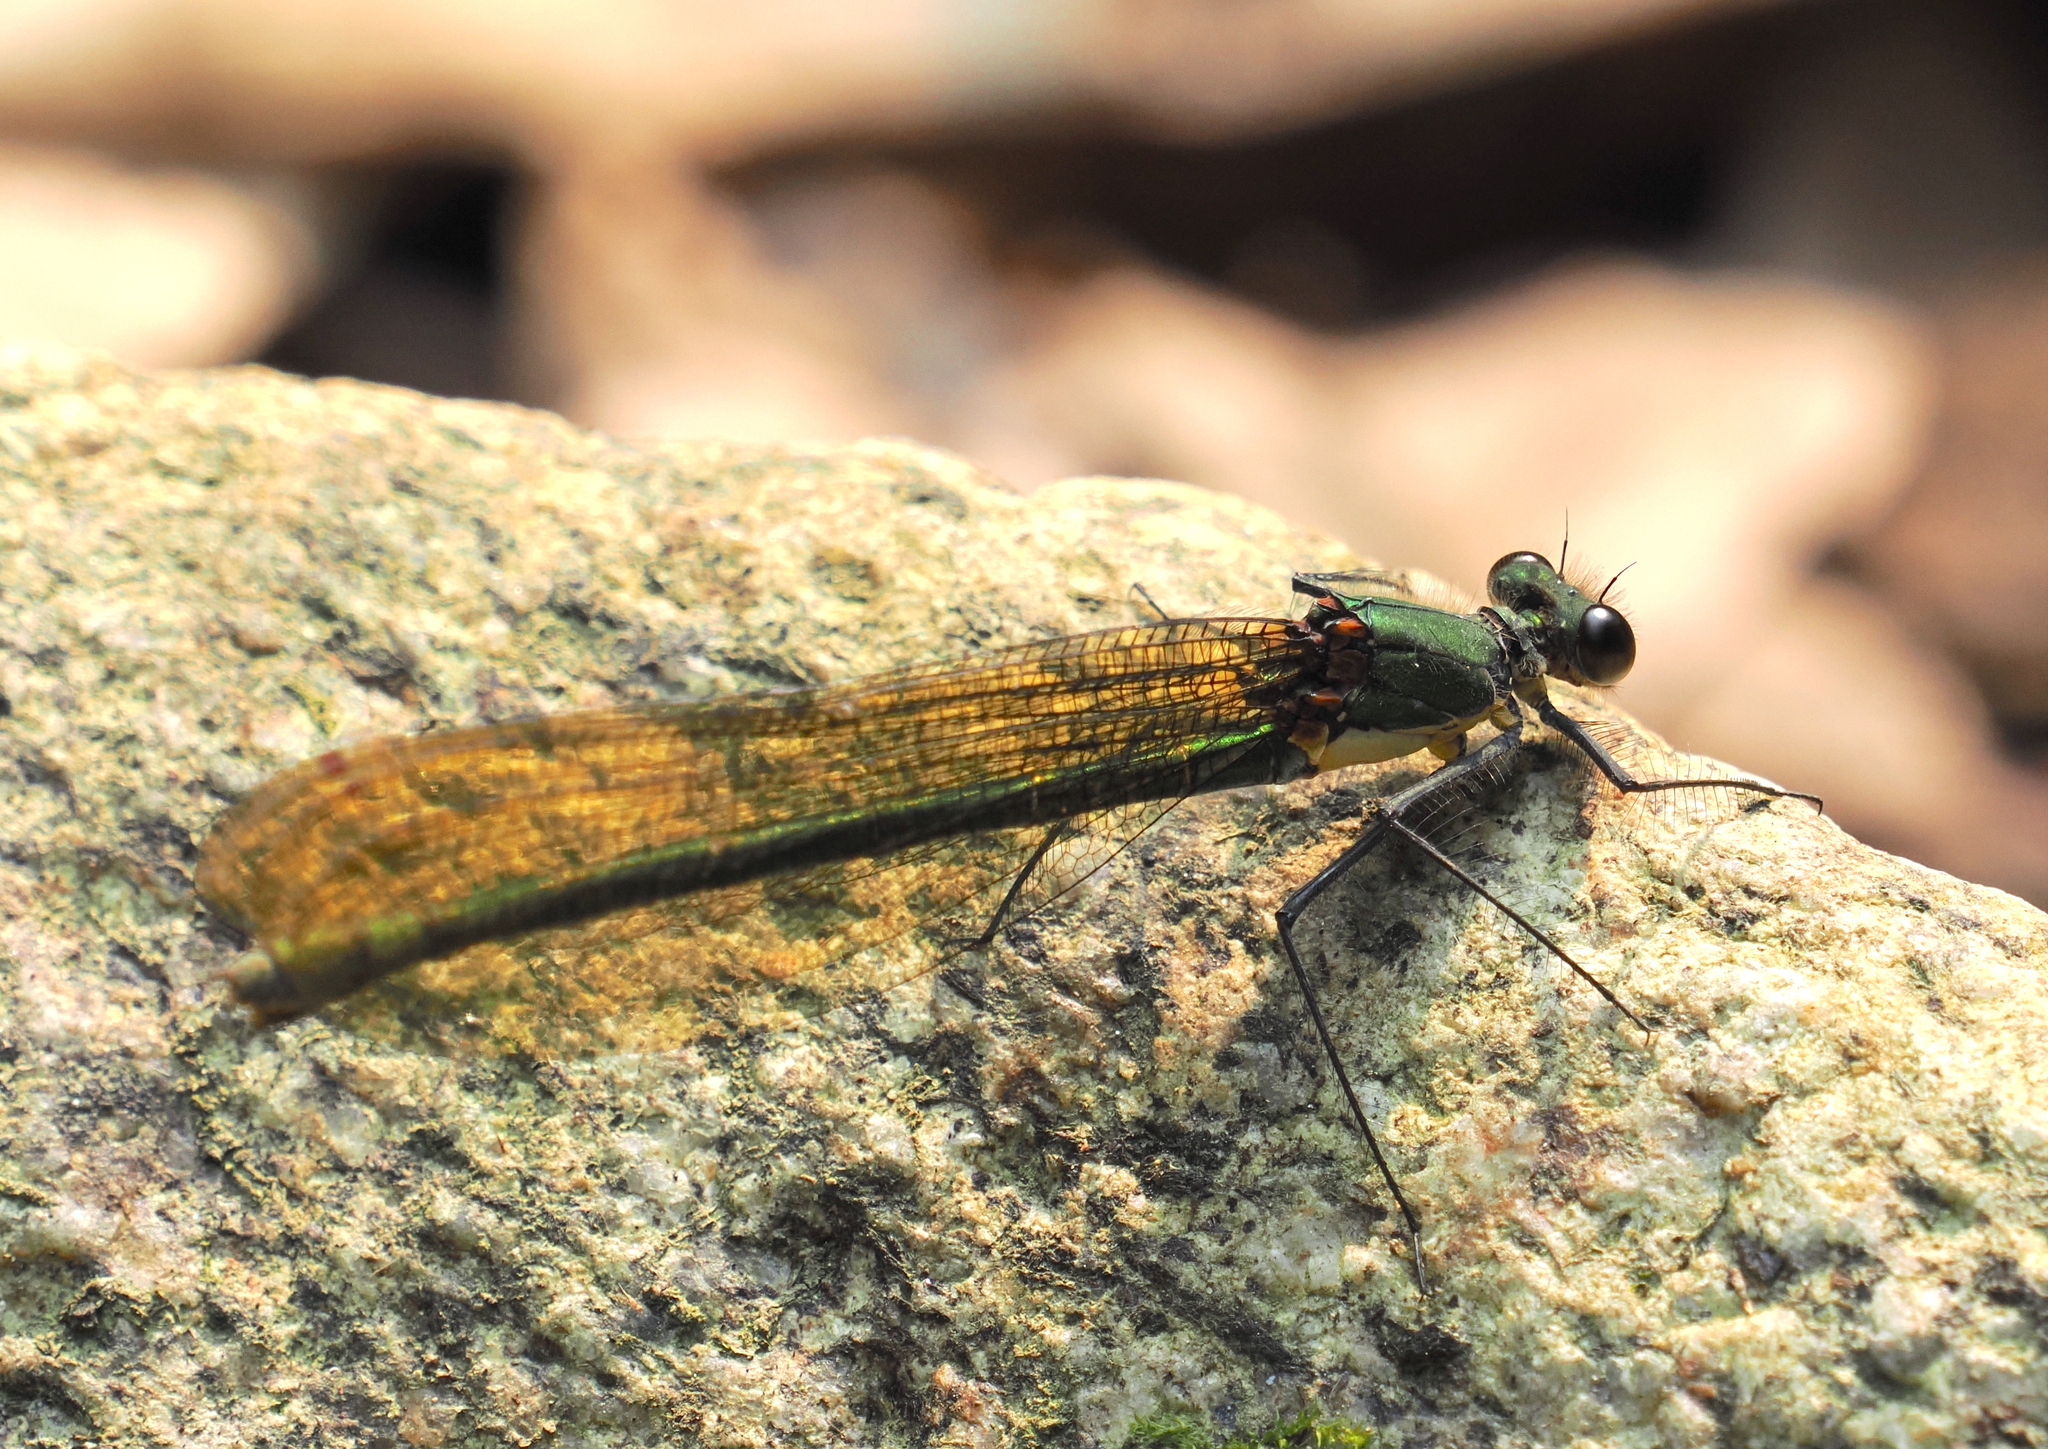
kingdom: Animalia
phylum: Arthropoda
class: Insecta
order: Odonata
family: Calopterygidae
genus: Mnais
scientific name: Mnais yunosukei
